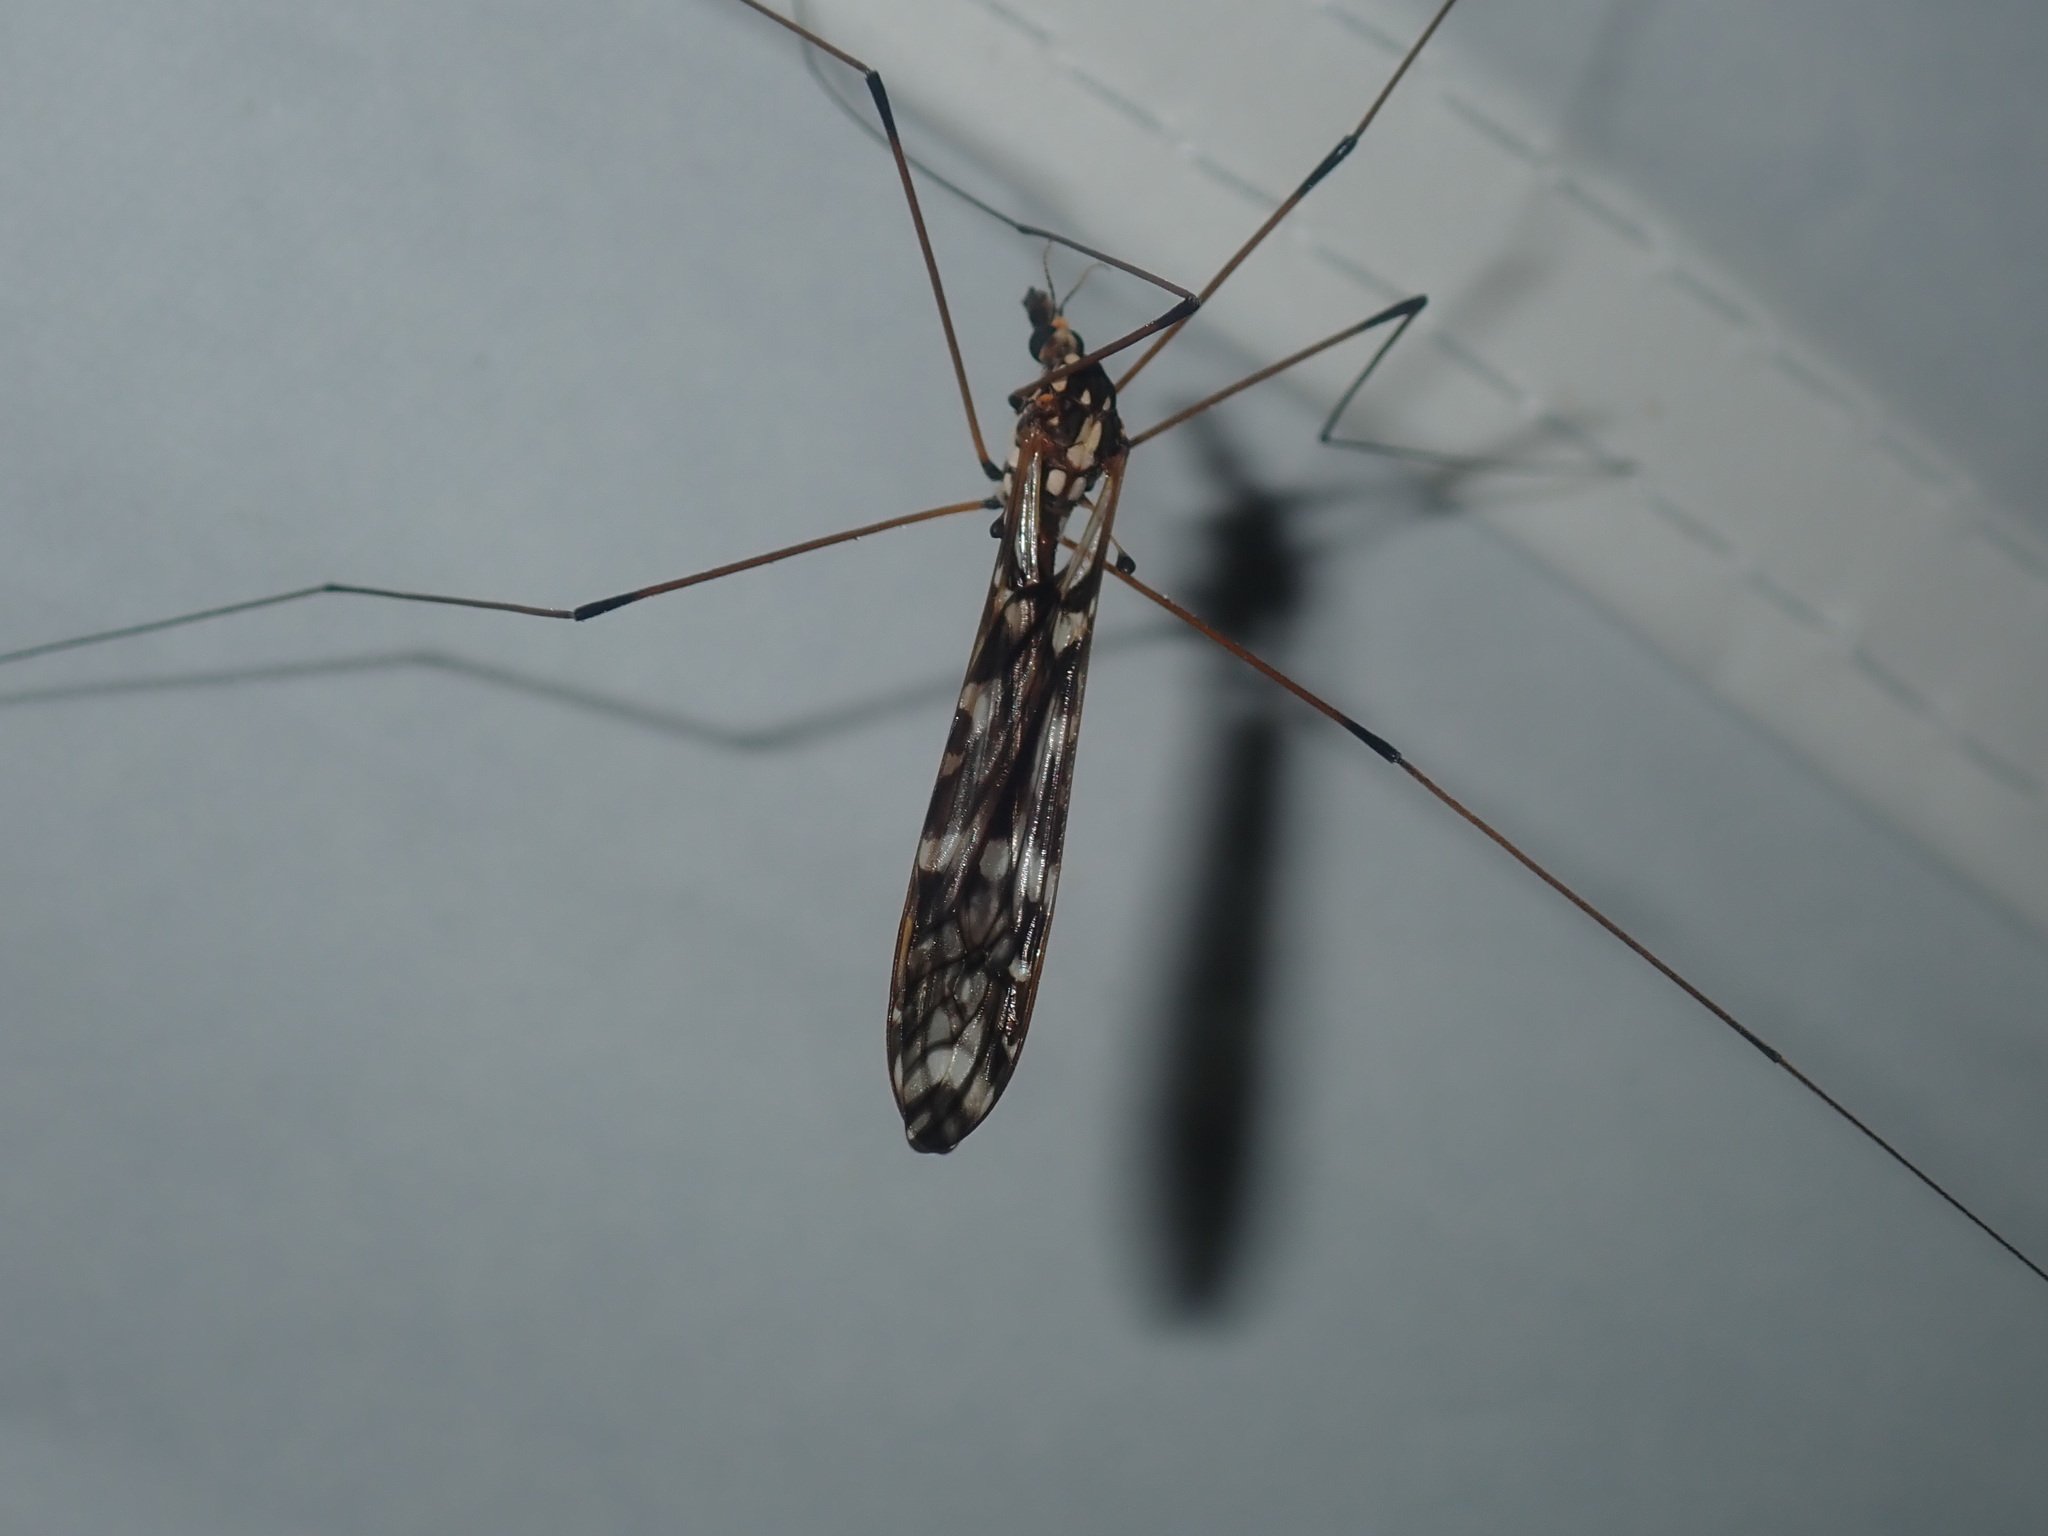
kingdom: Animalia
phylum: Arthropoda
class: Insecta
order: Diptera
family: Tipulidae
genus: Ischnotoma
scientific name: Ischnotoma eburnea
